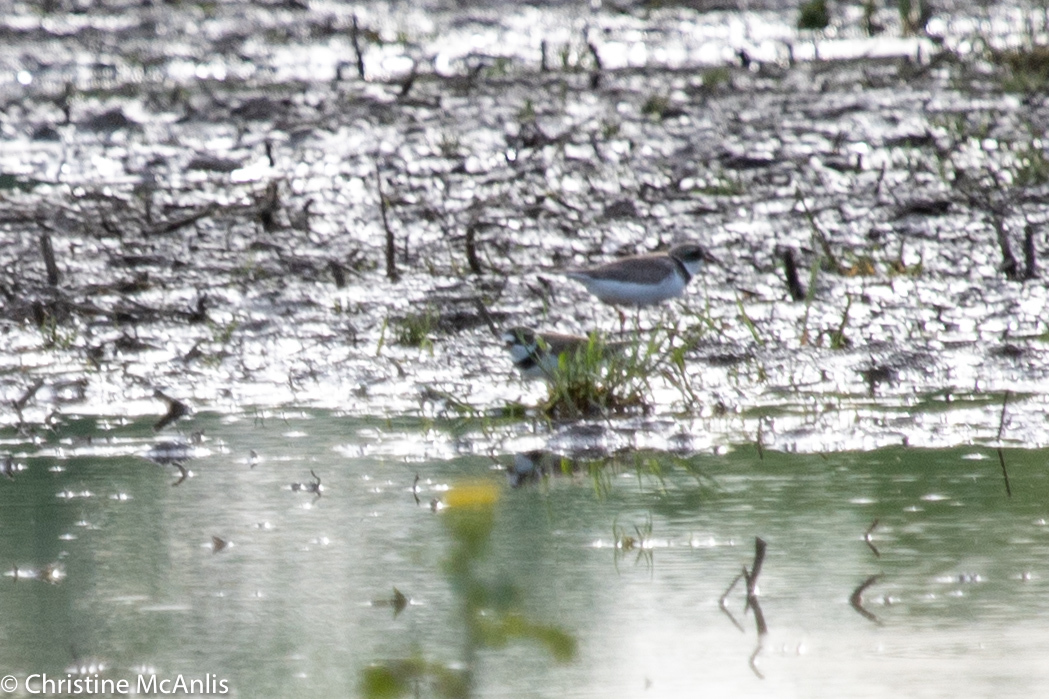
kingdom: Animalia
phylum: Chordata
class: Aves
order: Charadriiformes
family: Charadriidae
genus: Charadrius
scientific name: Charadrius semipalmatus
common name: Semipalmated plover
